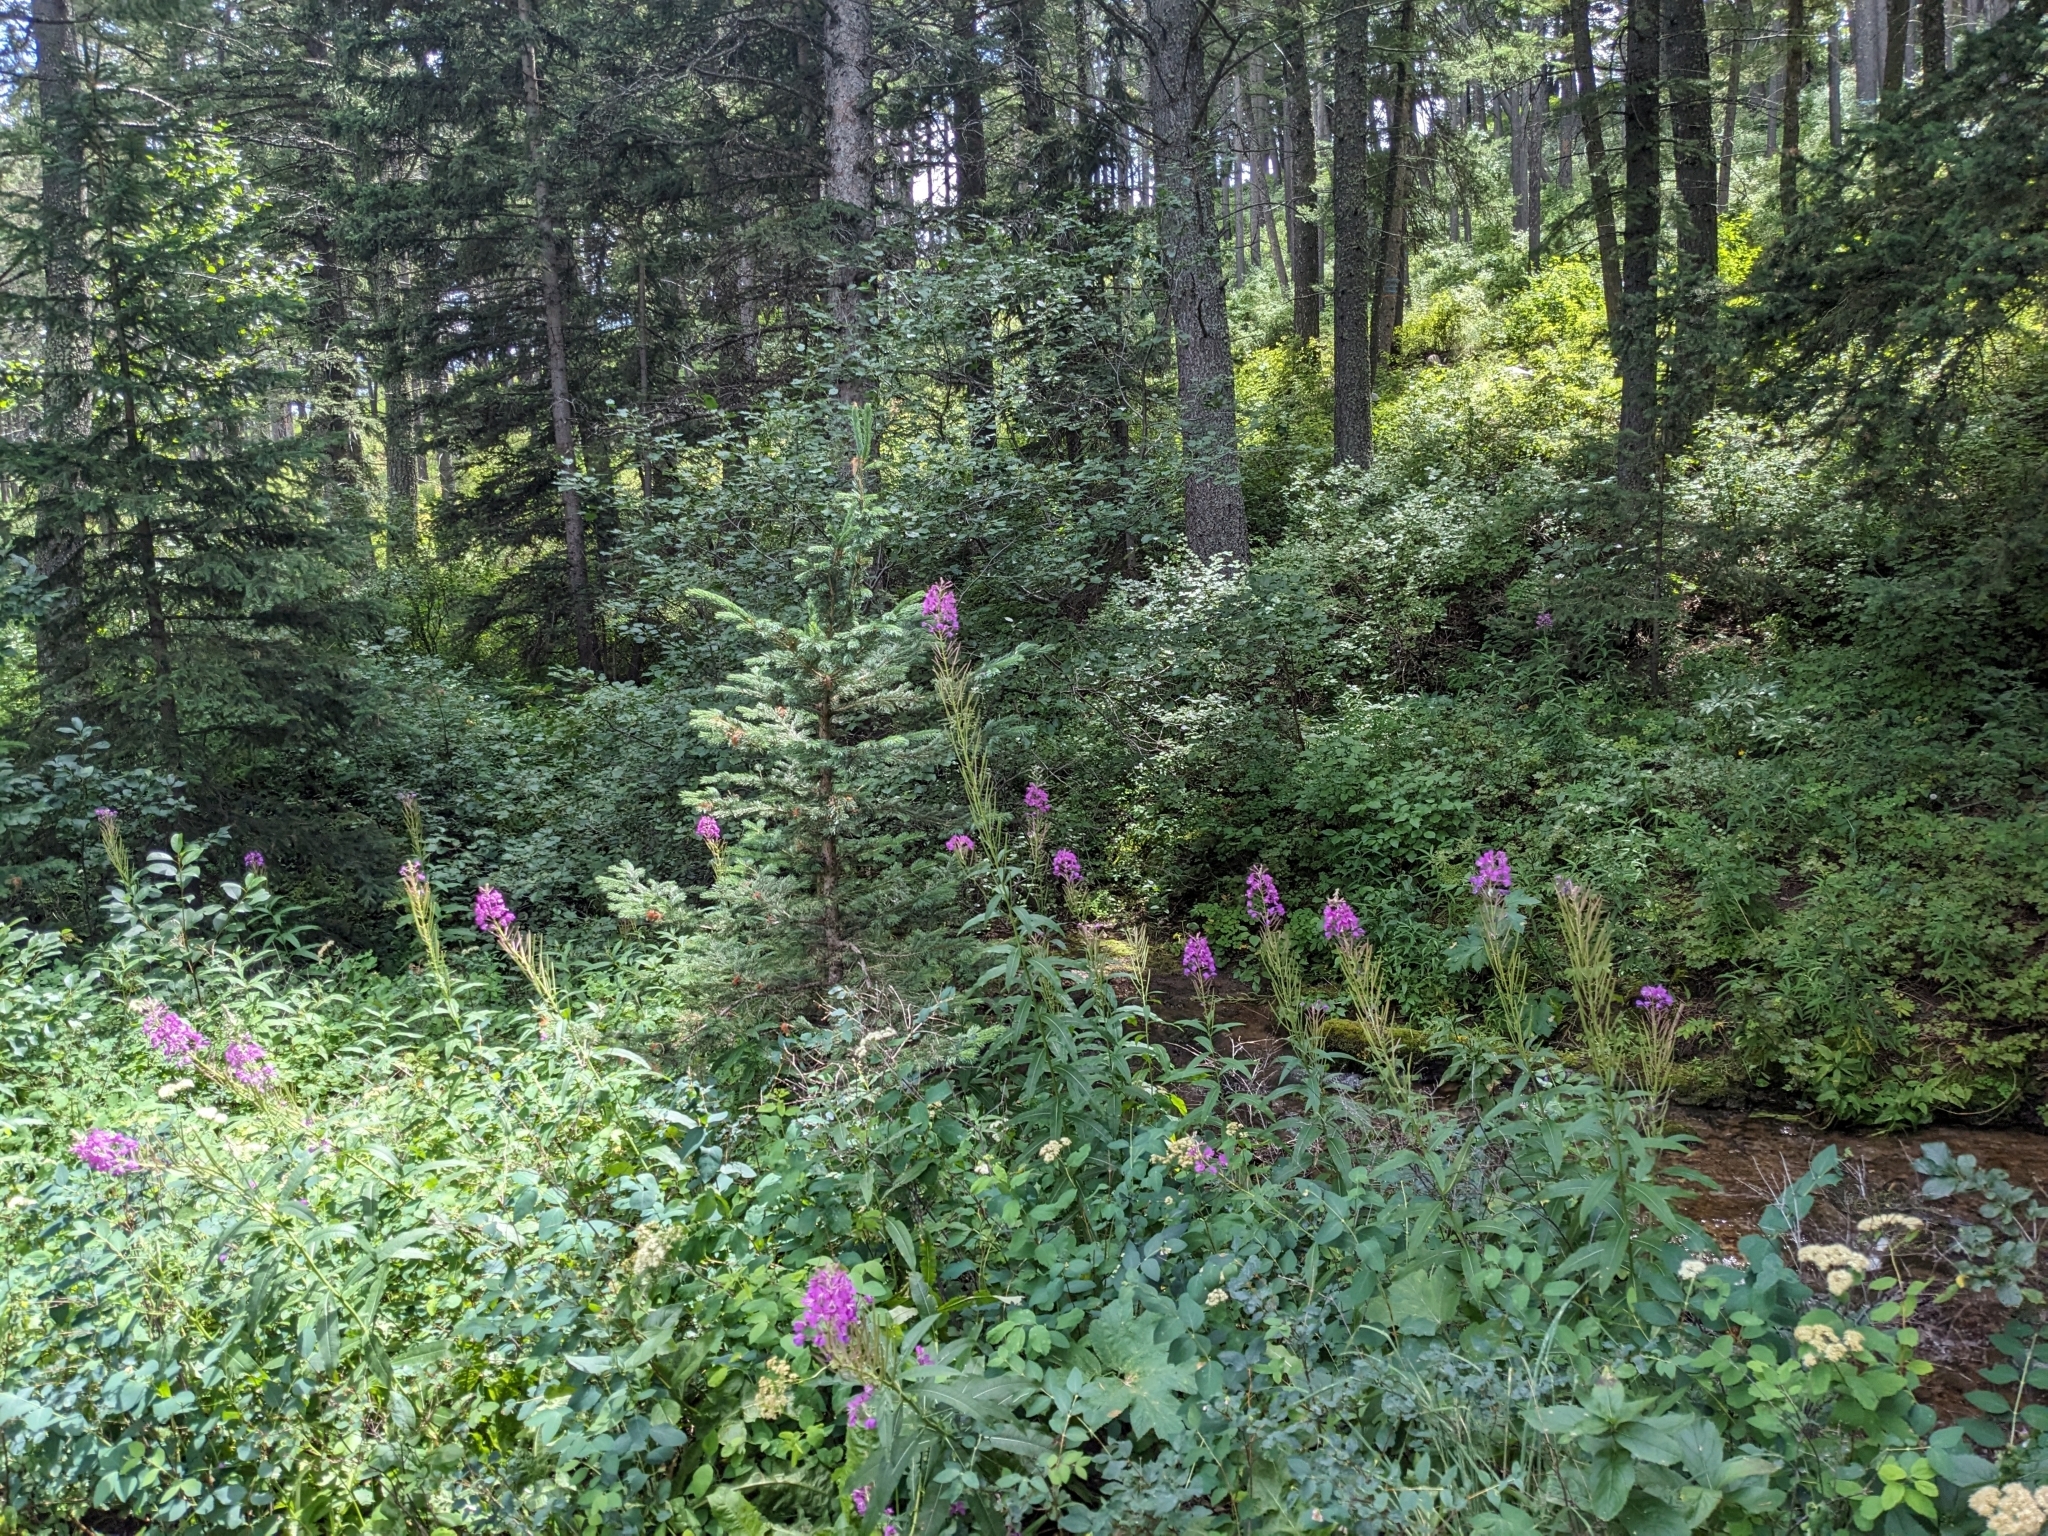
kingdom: Plantae
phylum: Tracheophyta
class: Magnoliopsida
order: Myrtales
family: Onagraceae
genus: Chamaenerion
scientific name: Chamaenerion angustifolium
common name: Fireweed
